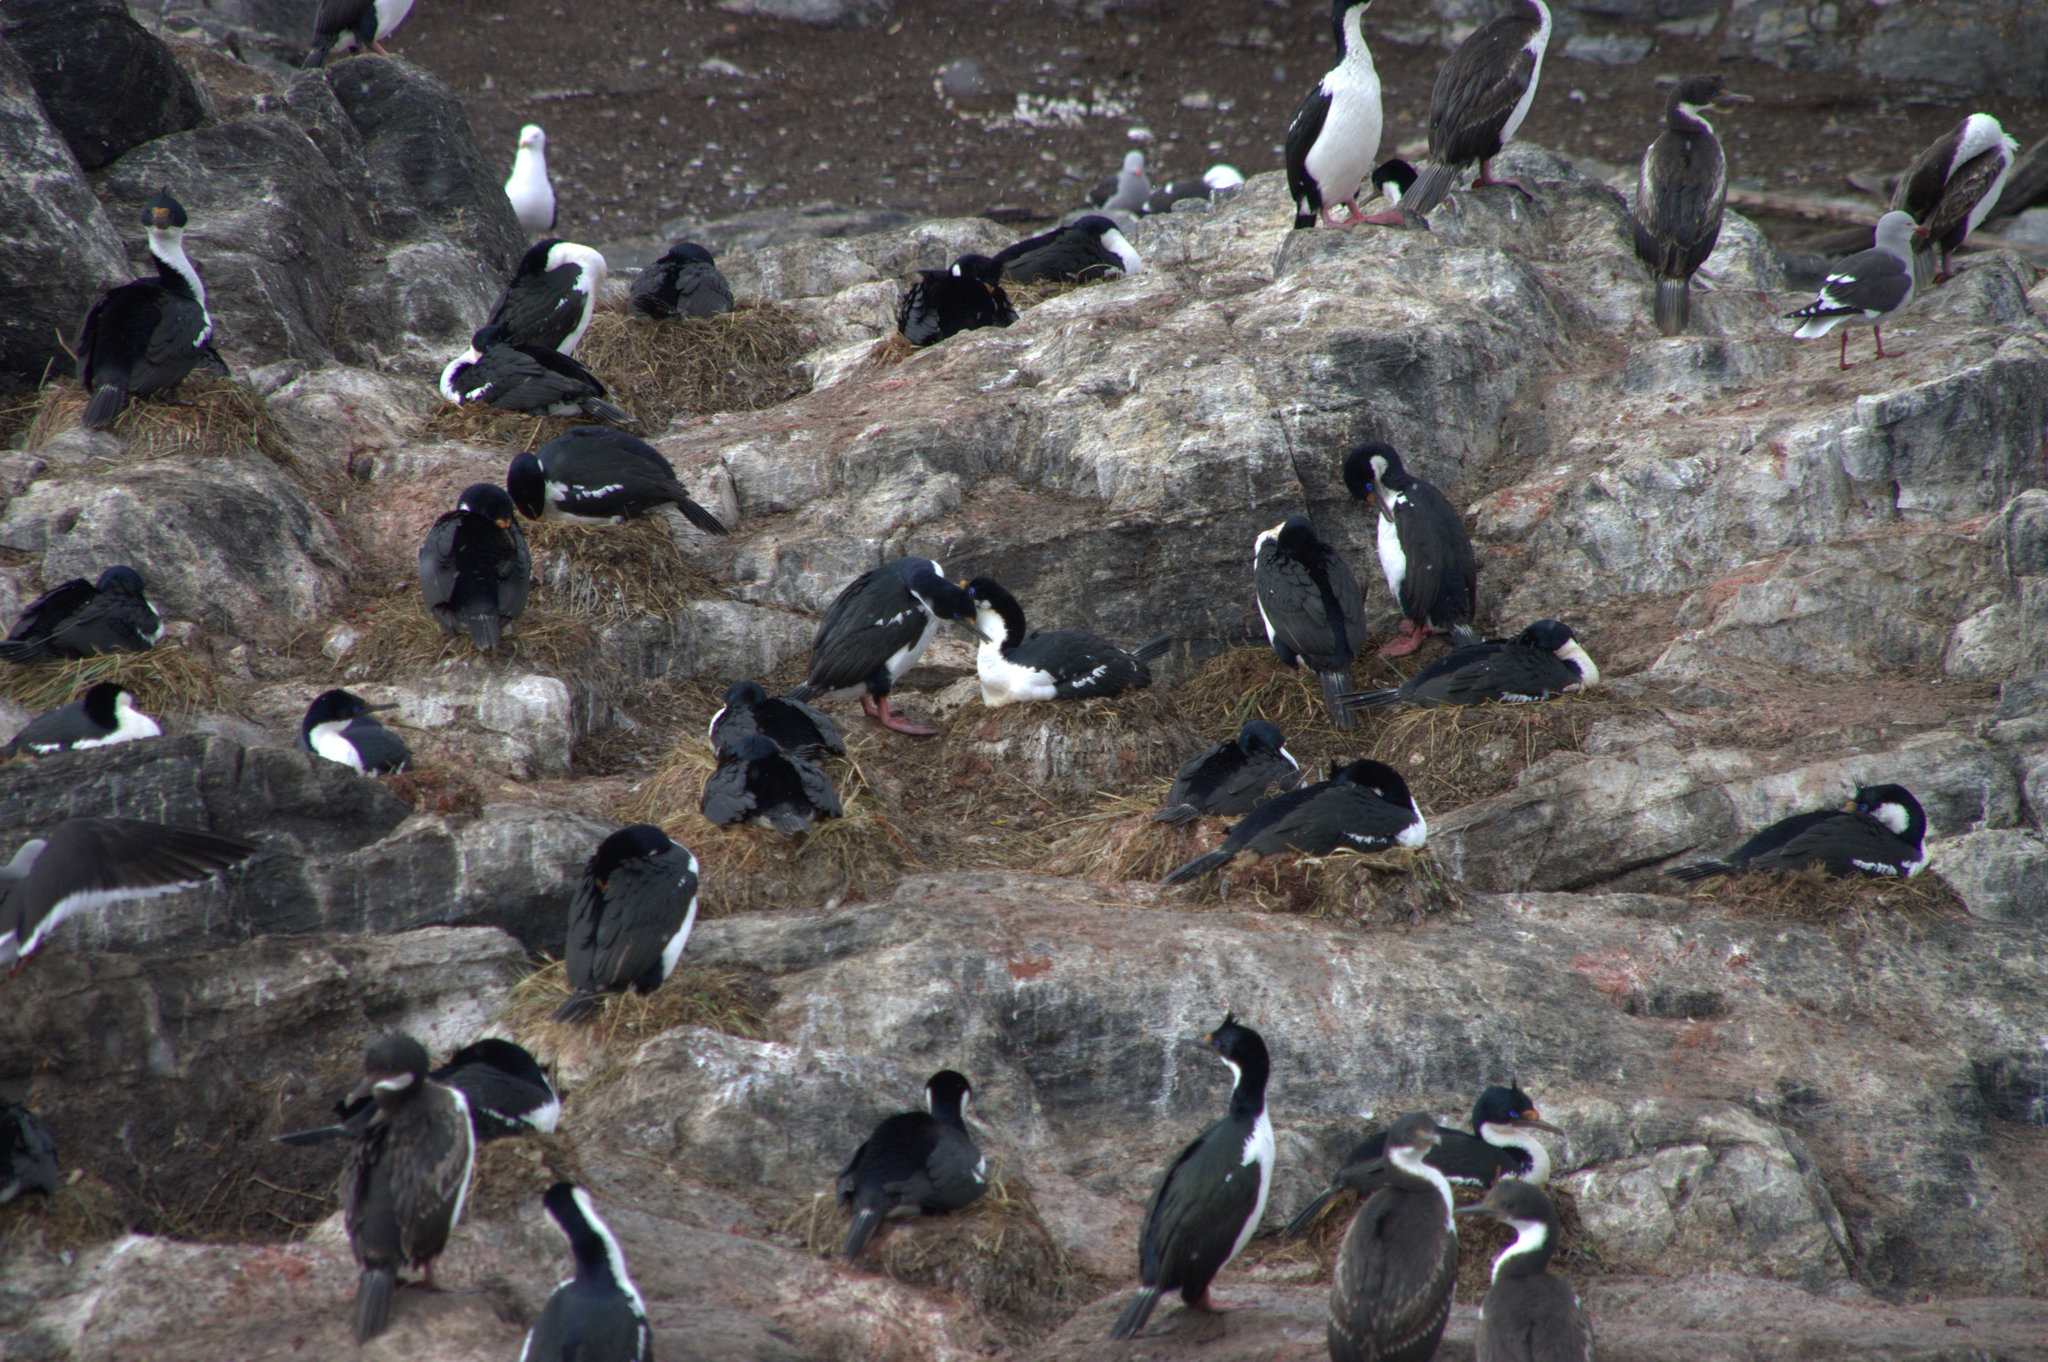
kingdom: Animalia
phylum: Chordata
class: Aves
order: Suliformes
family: Phalacrocoracidae
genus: Leucocarbo
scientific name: Leucocarbo albiventer
